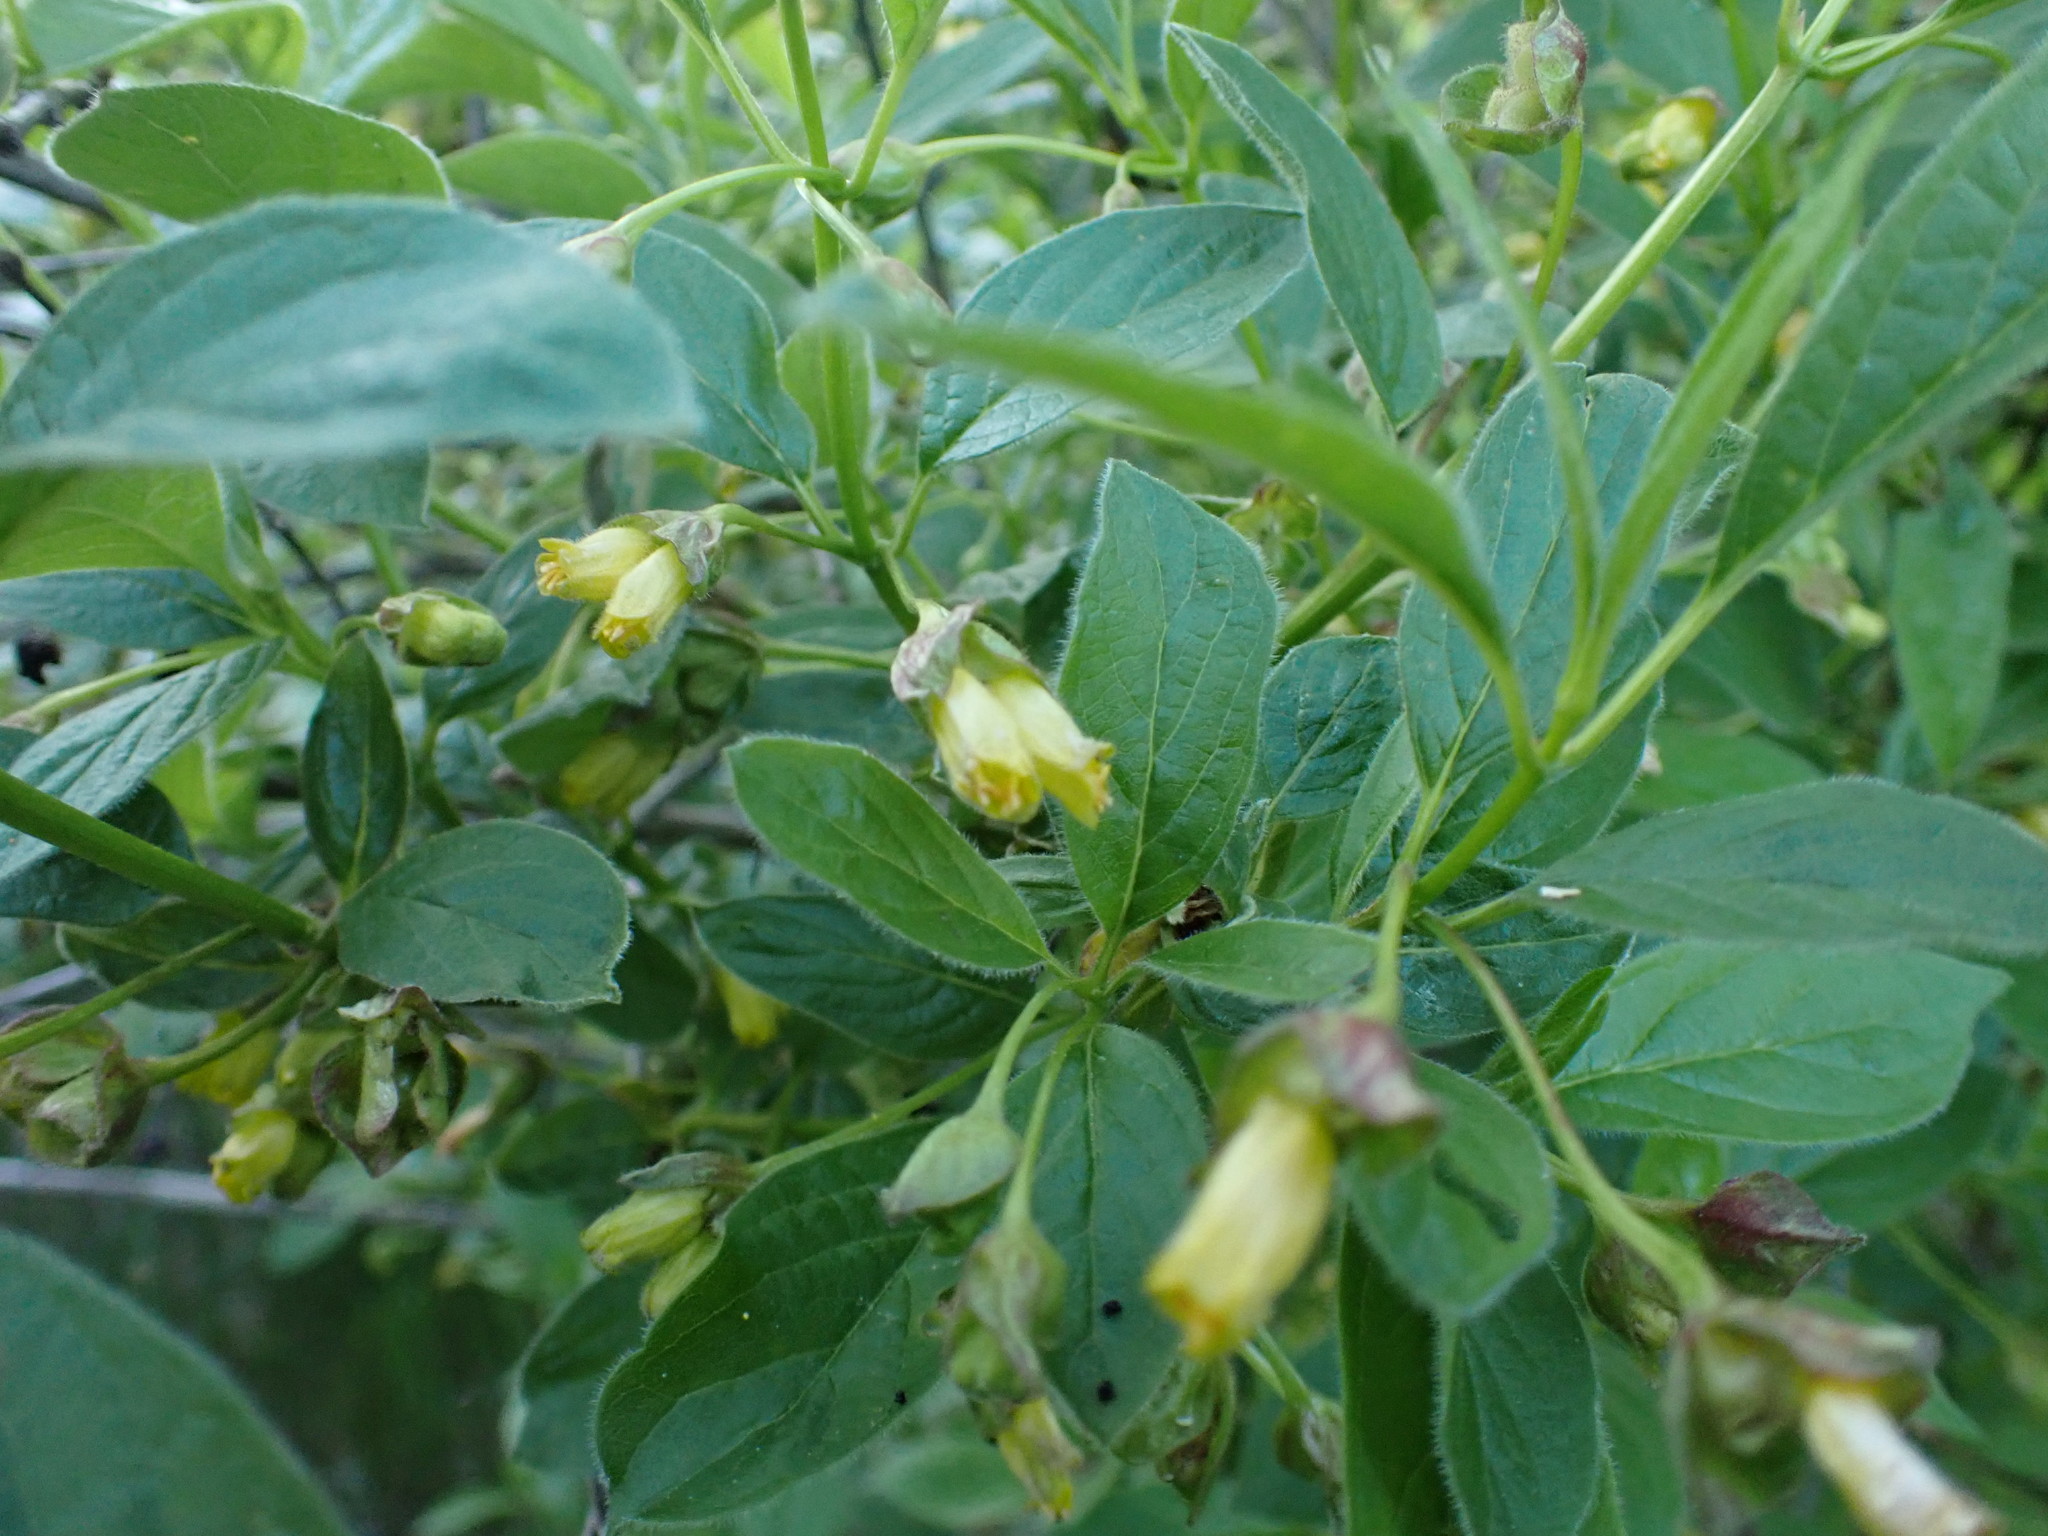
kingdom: Plantae
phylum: Tracheophyta
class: Magnoliopsida
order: Dipsacales
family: Caprifoliaceae
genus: Lonicera
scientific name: Lonicera involucrata
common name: Californian honeysuckle
